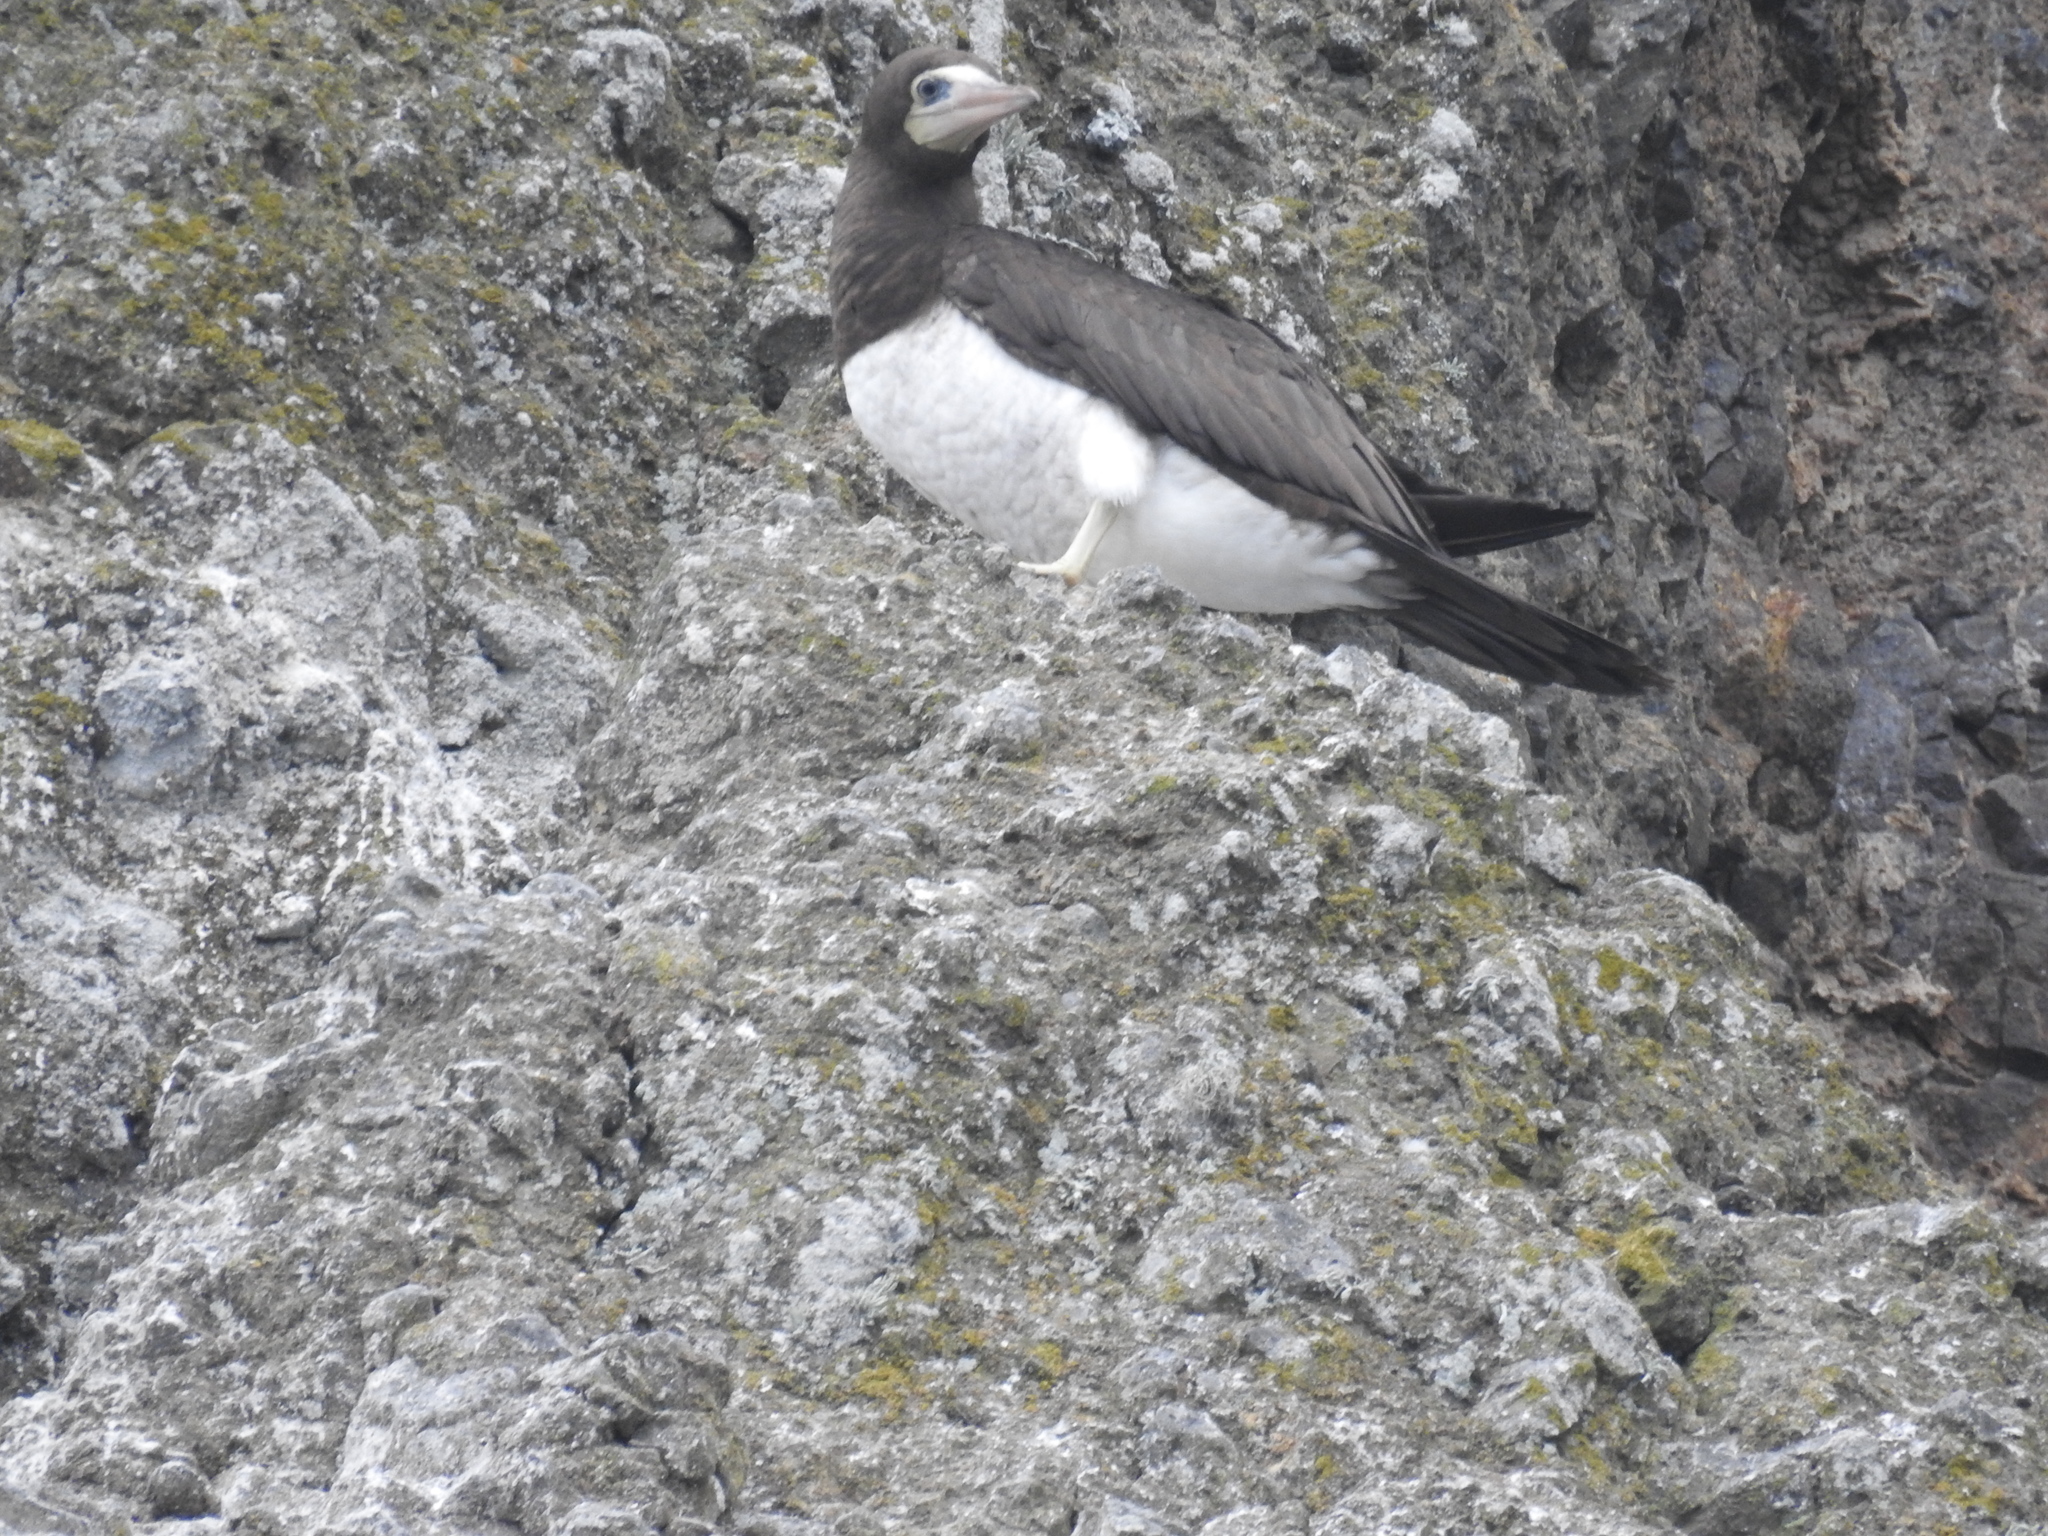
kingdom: Animalia
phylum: Chordata
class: Aves
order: Suliformes
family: Sulidae
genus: Sula
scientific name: Sula leucogaster
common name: Brown booby
